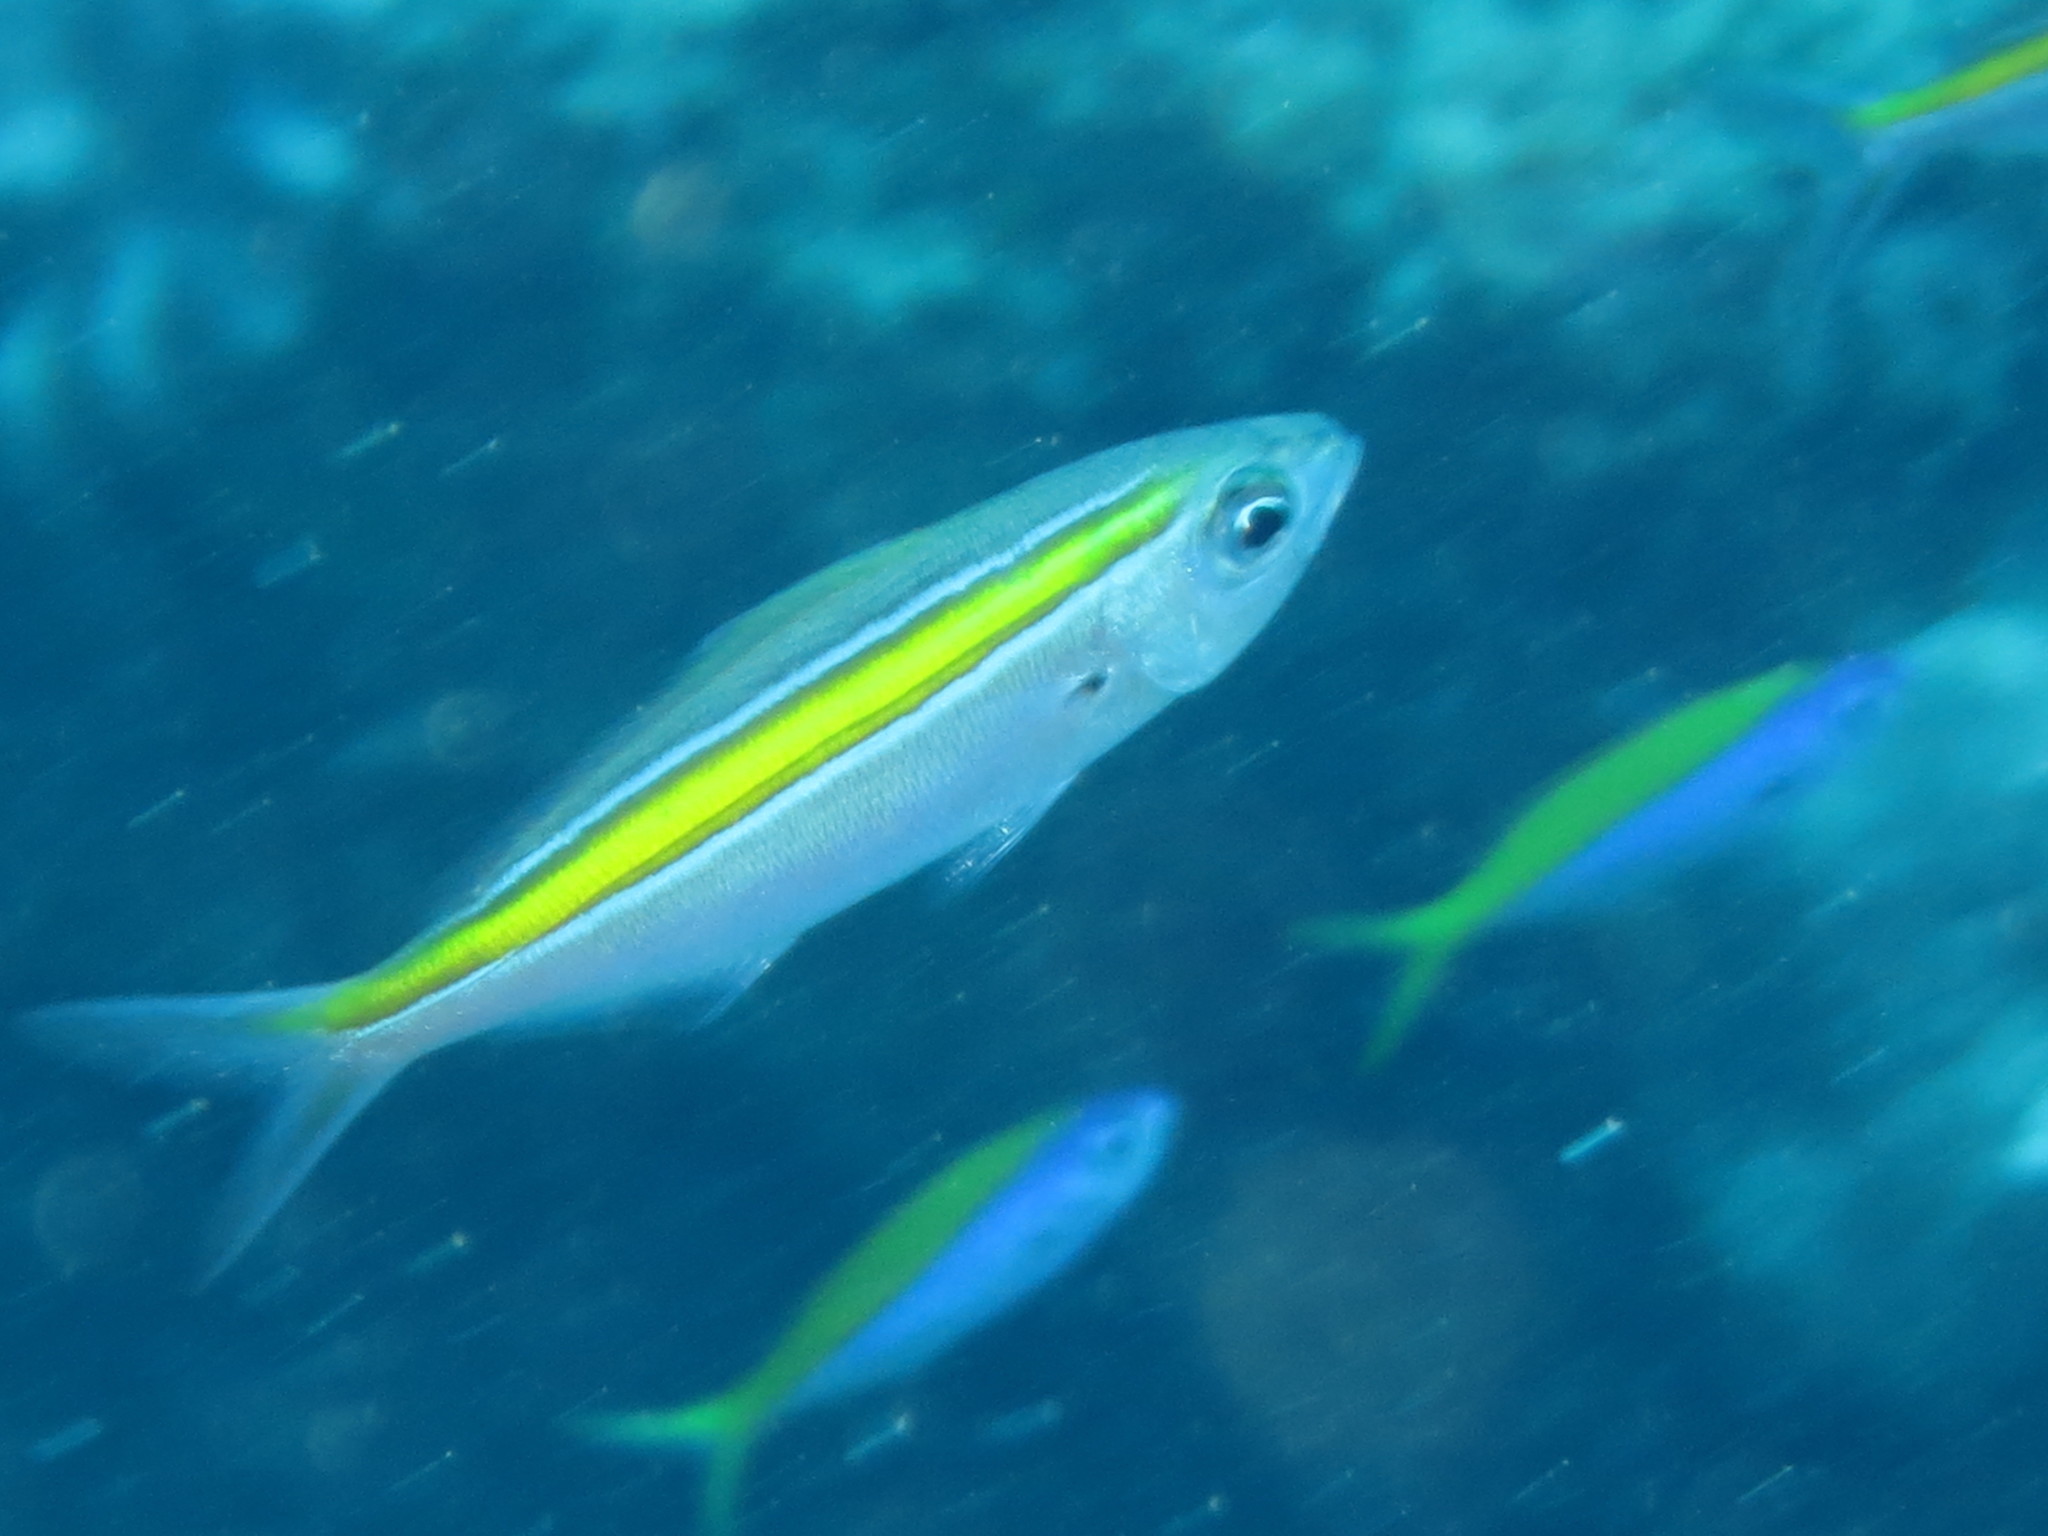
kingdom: Animalia
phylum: Chordata
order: Perciformes
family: Caesionidae
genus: Caesio
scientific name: Caesio xanthalytos
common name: Goldsash fusilier
